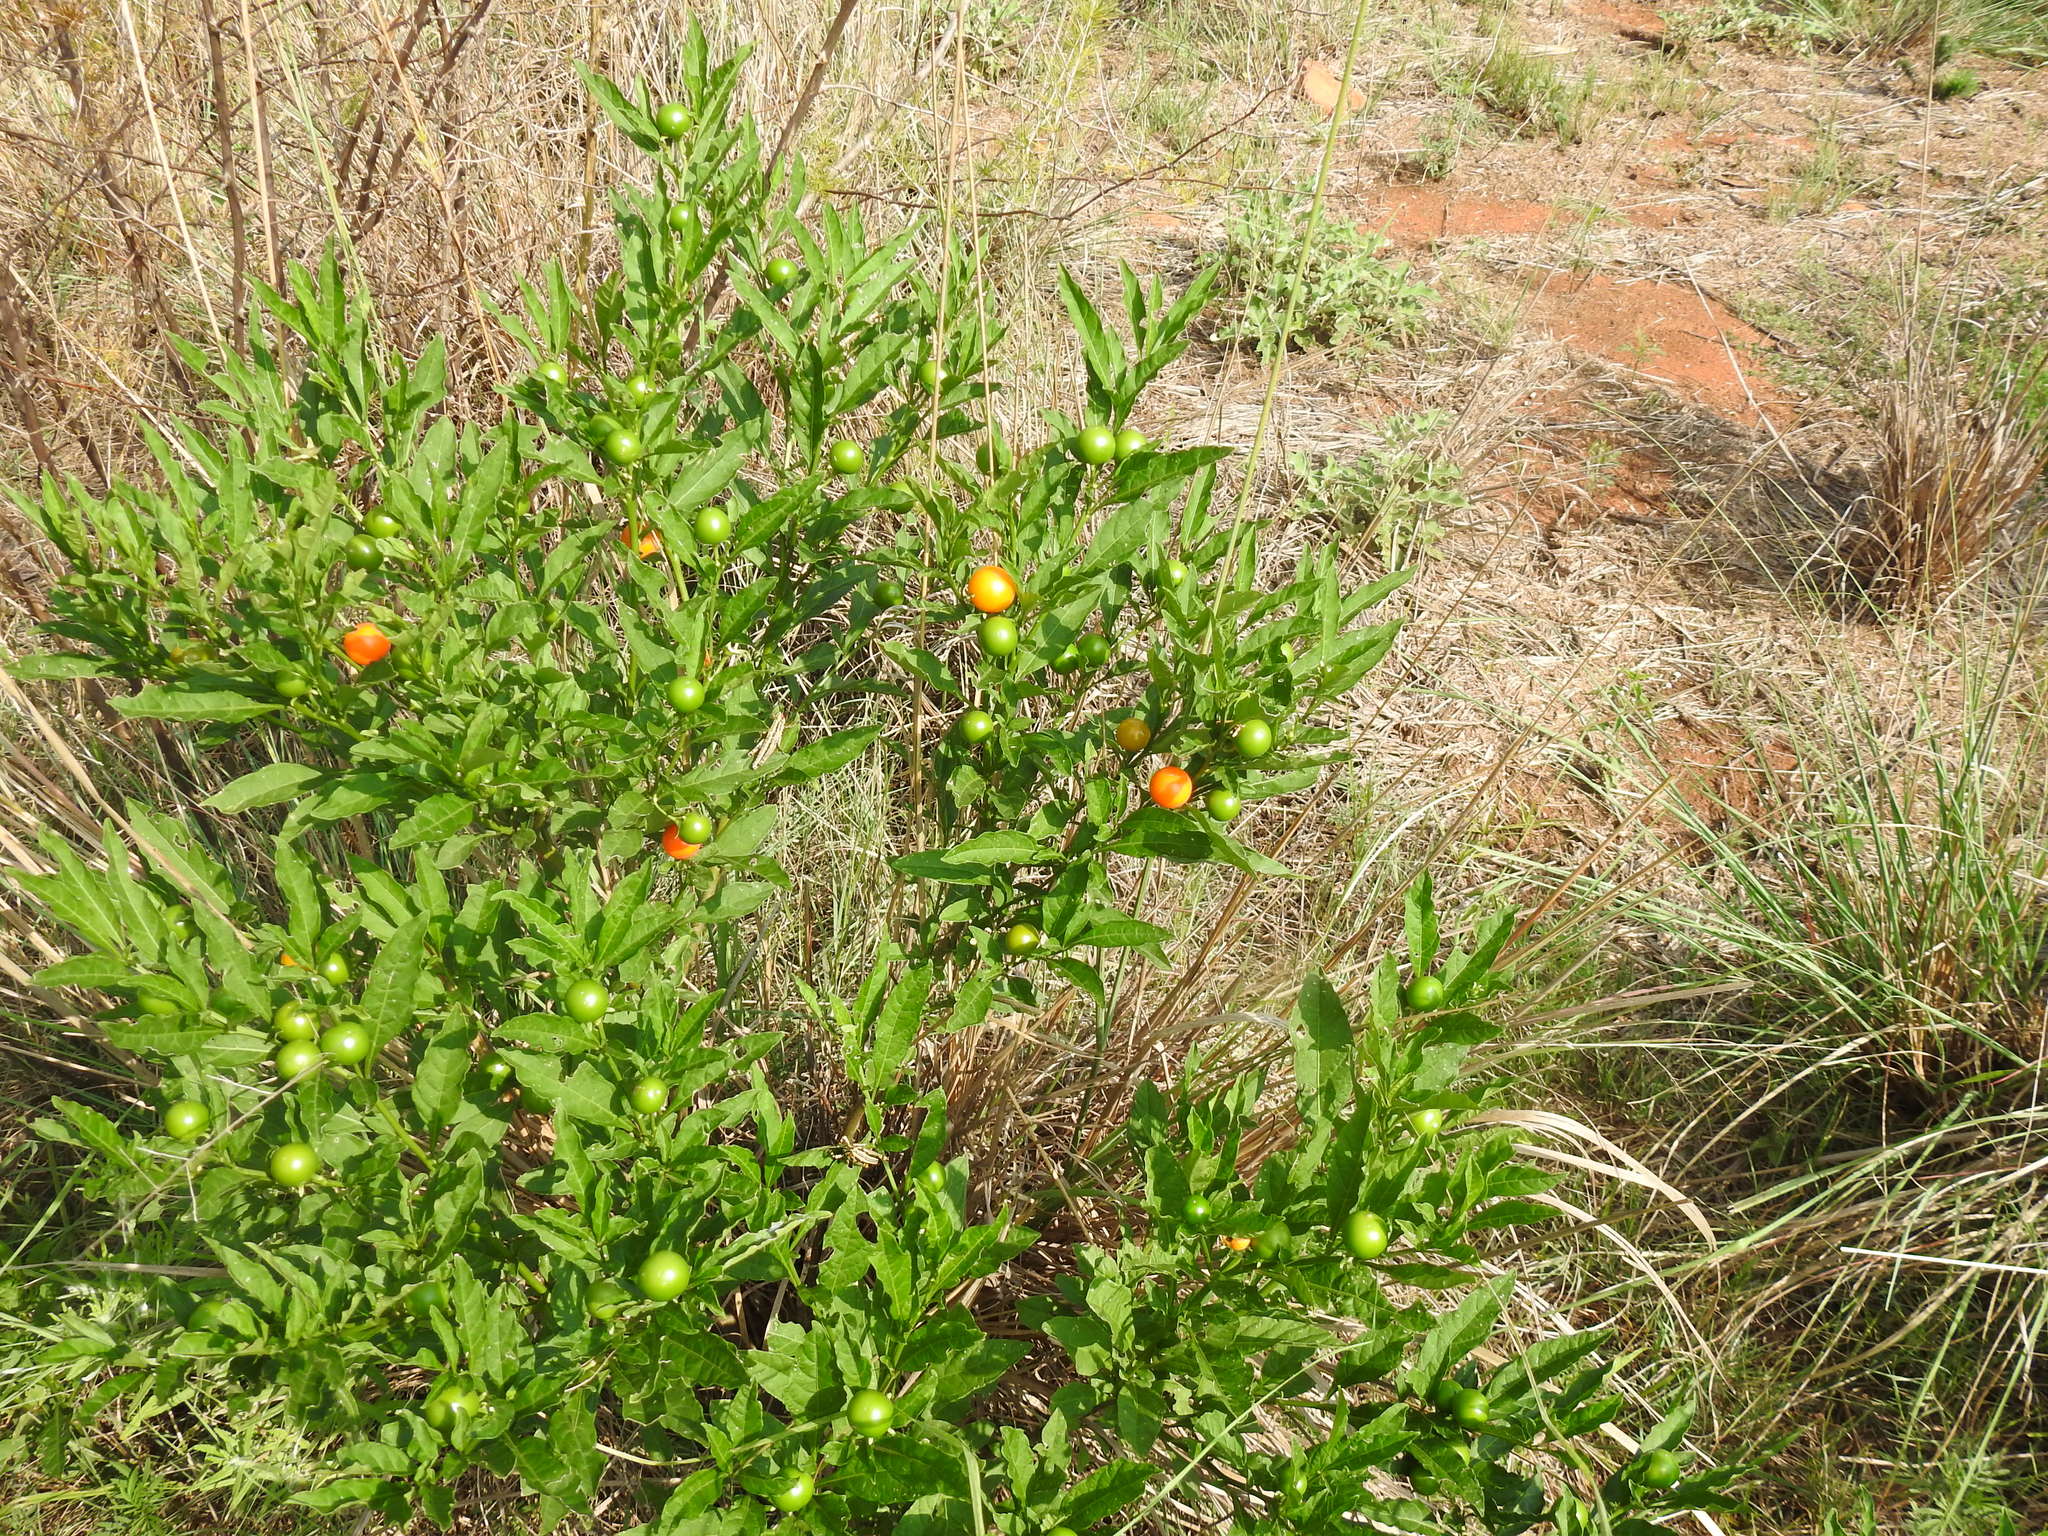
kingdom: Plantae
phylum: Tracheophyta
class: Magnoliopsida
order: Solanales
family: Solanaceae
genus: Solanum
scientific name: Solanum pseudocapsicum
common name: Jerusalem cherry
